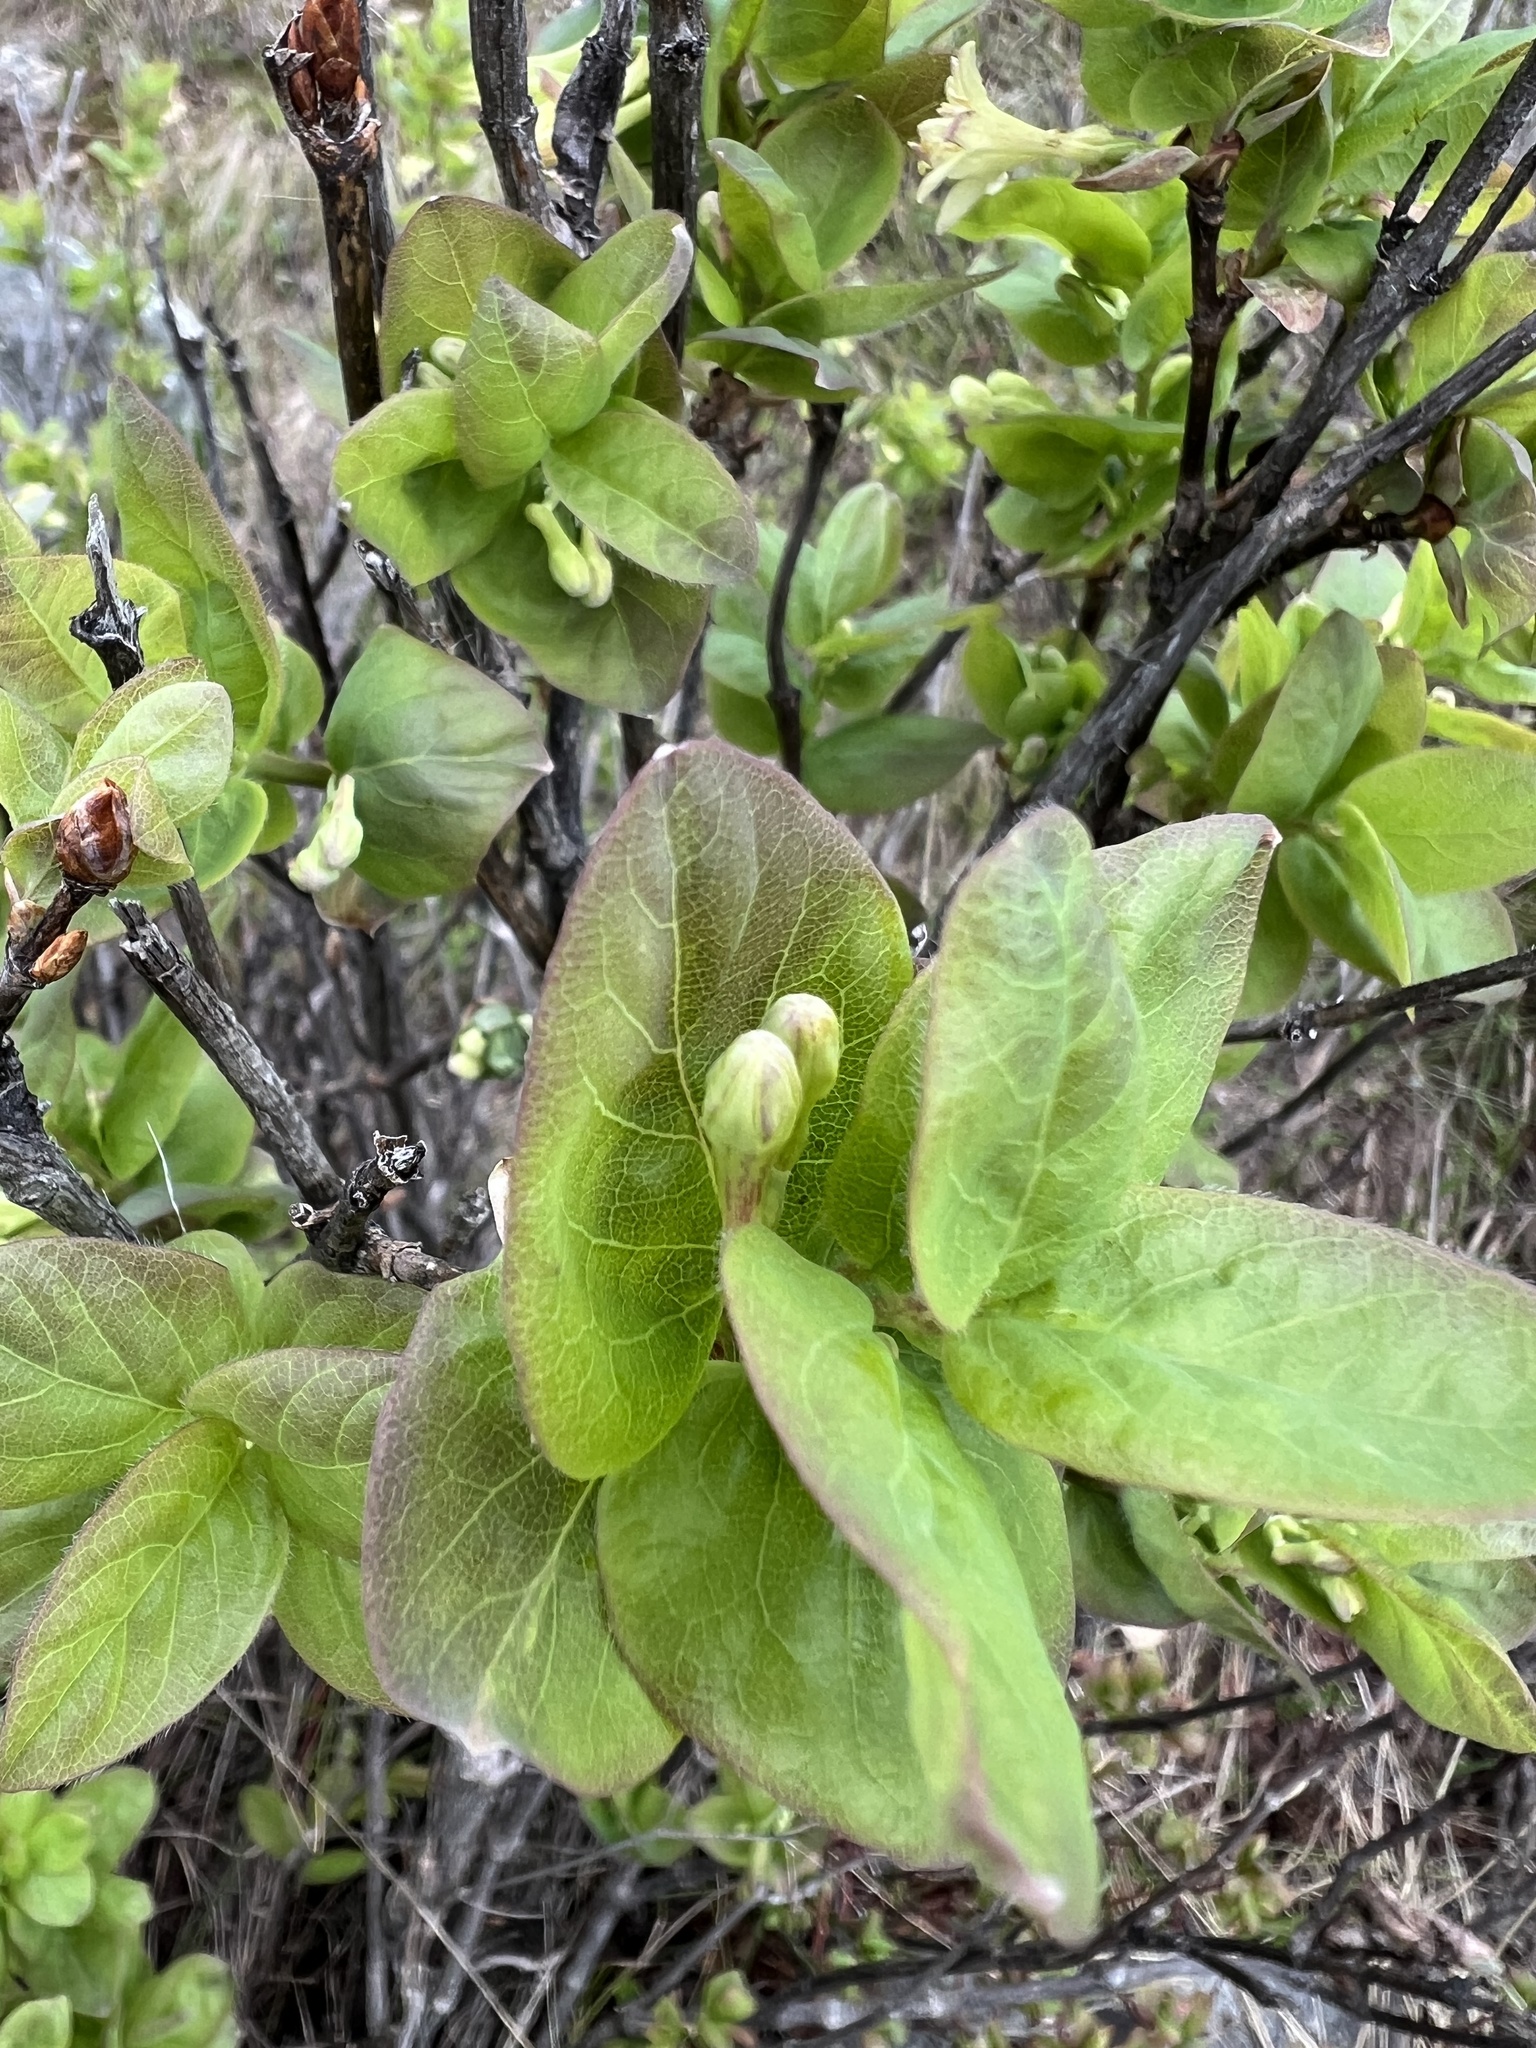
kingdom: Plantae
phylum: Tracheophyta
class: Magnoliopsida
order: Dipsacales
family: Caprifoliaceae
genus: Lonicera
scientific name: Lonicera utahensis
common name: Utah honeysuckle
